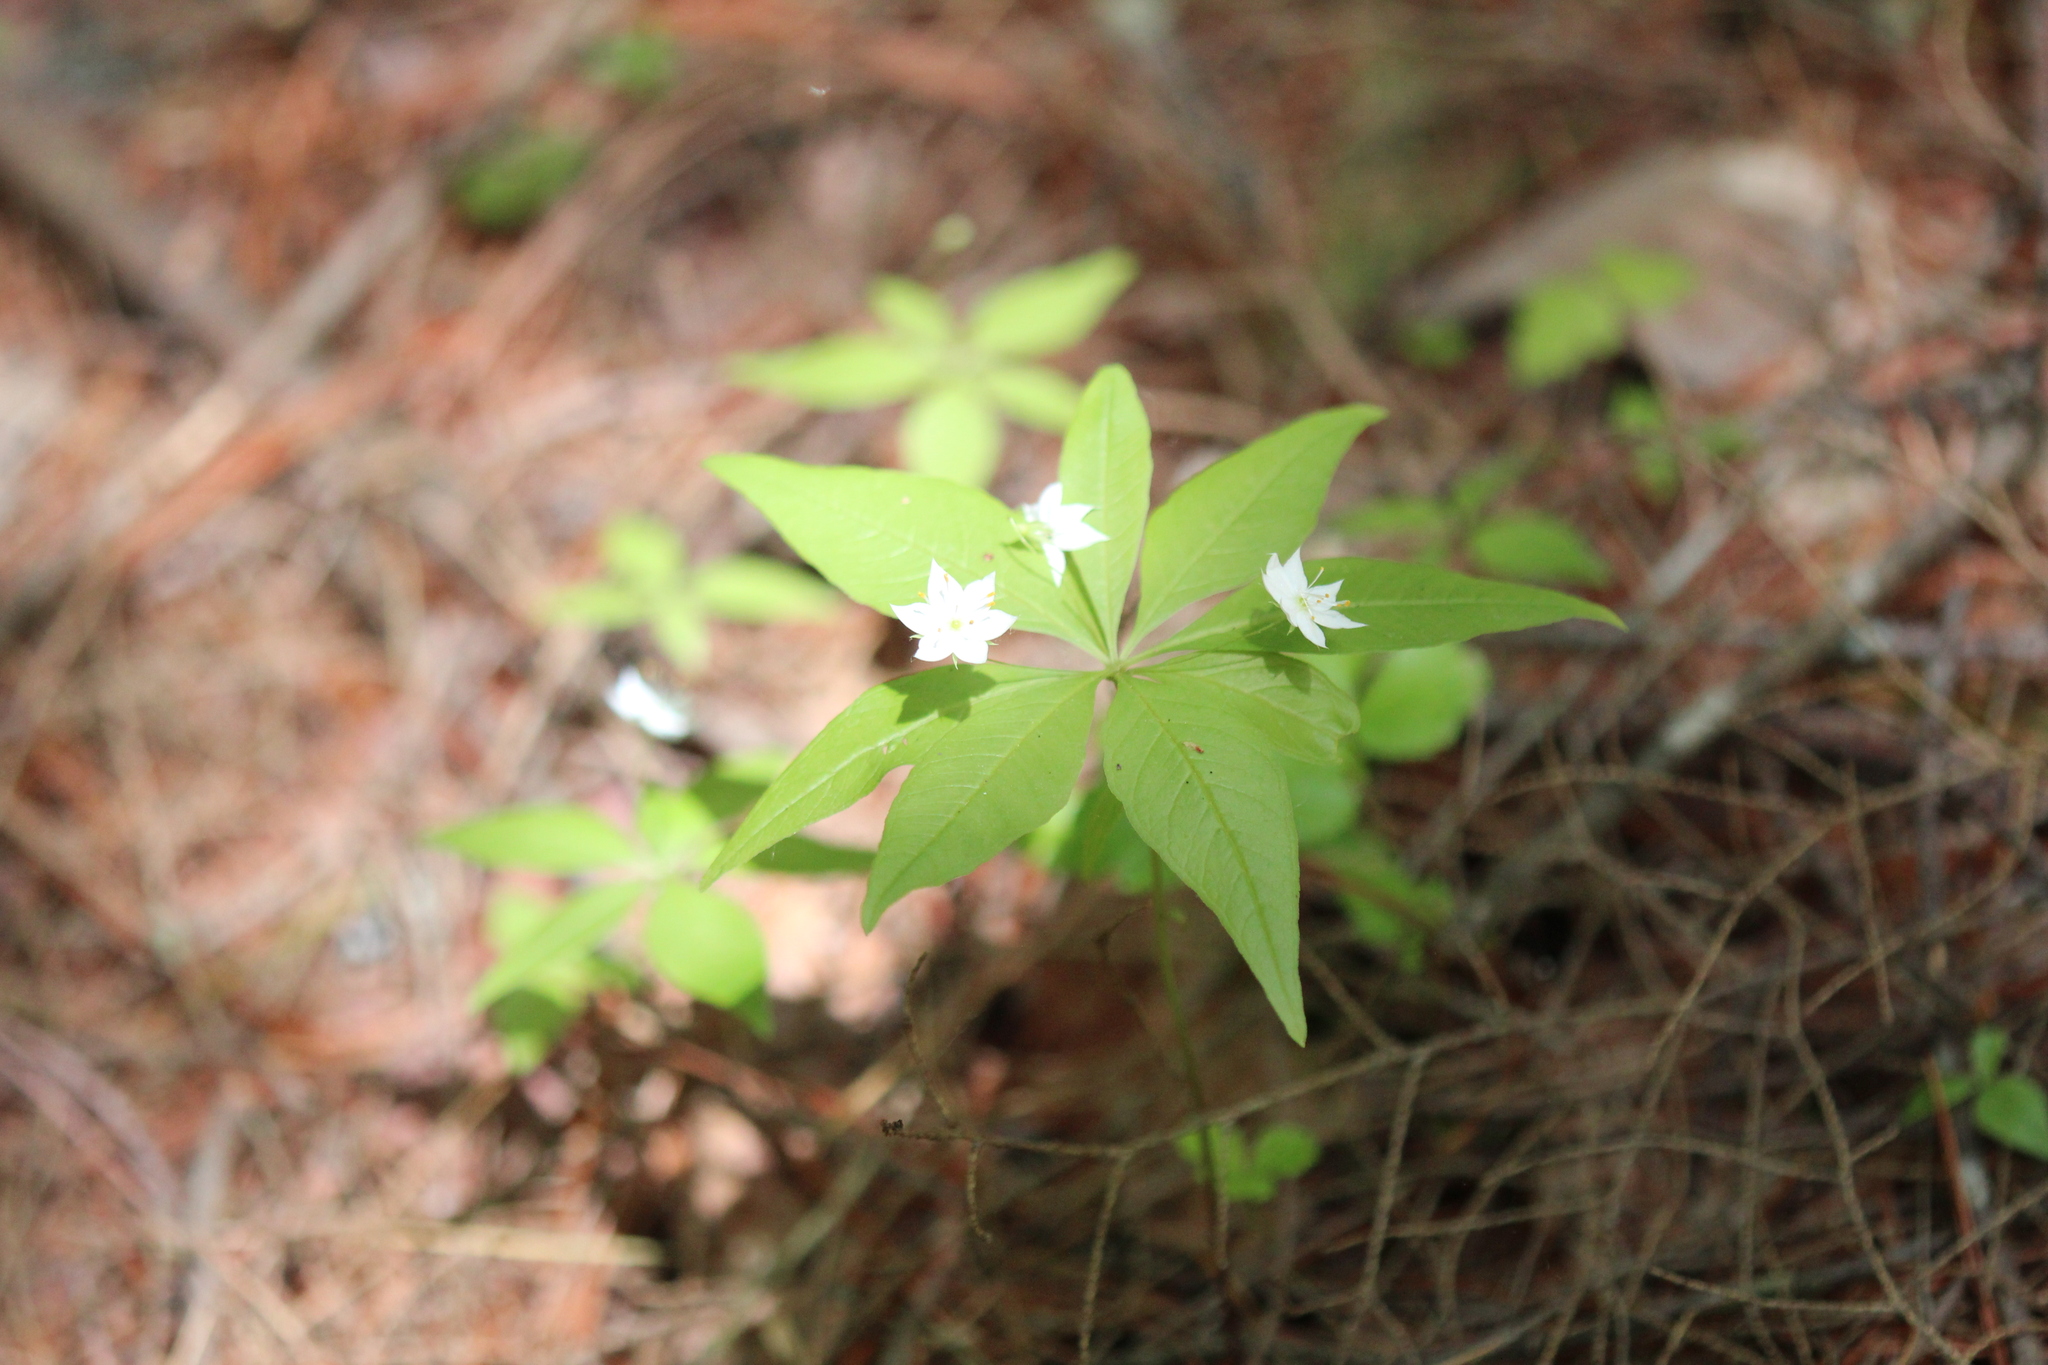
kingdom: Plantae
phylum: Tracheophyta
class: Magnoliopsida
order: Ericales
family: Primulaceae
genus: Lysimachia
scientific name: Lysimachia borealis
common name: American starflower
